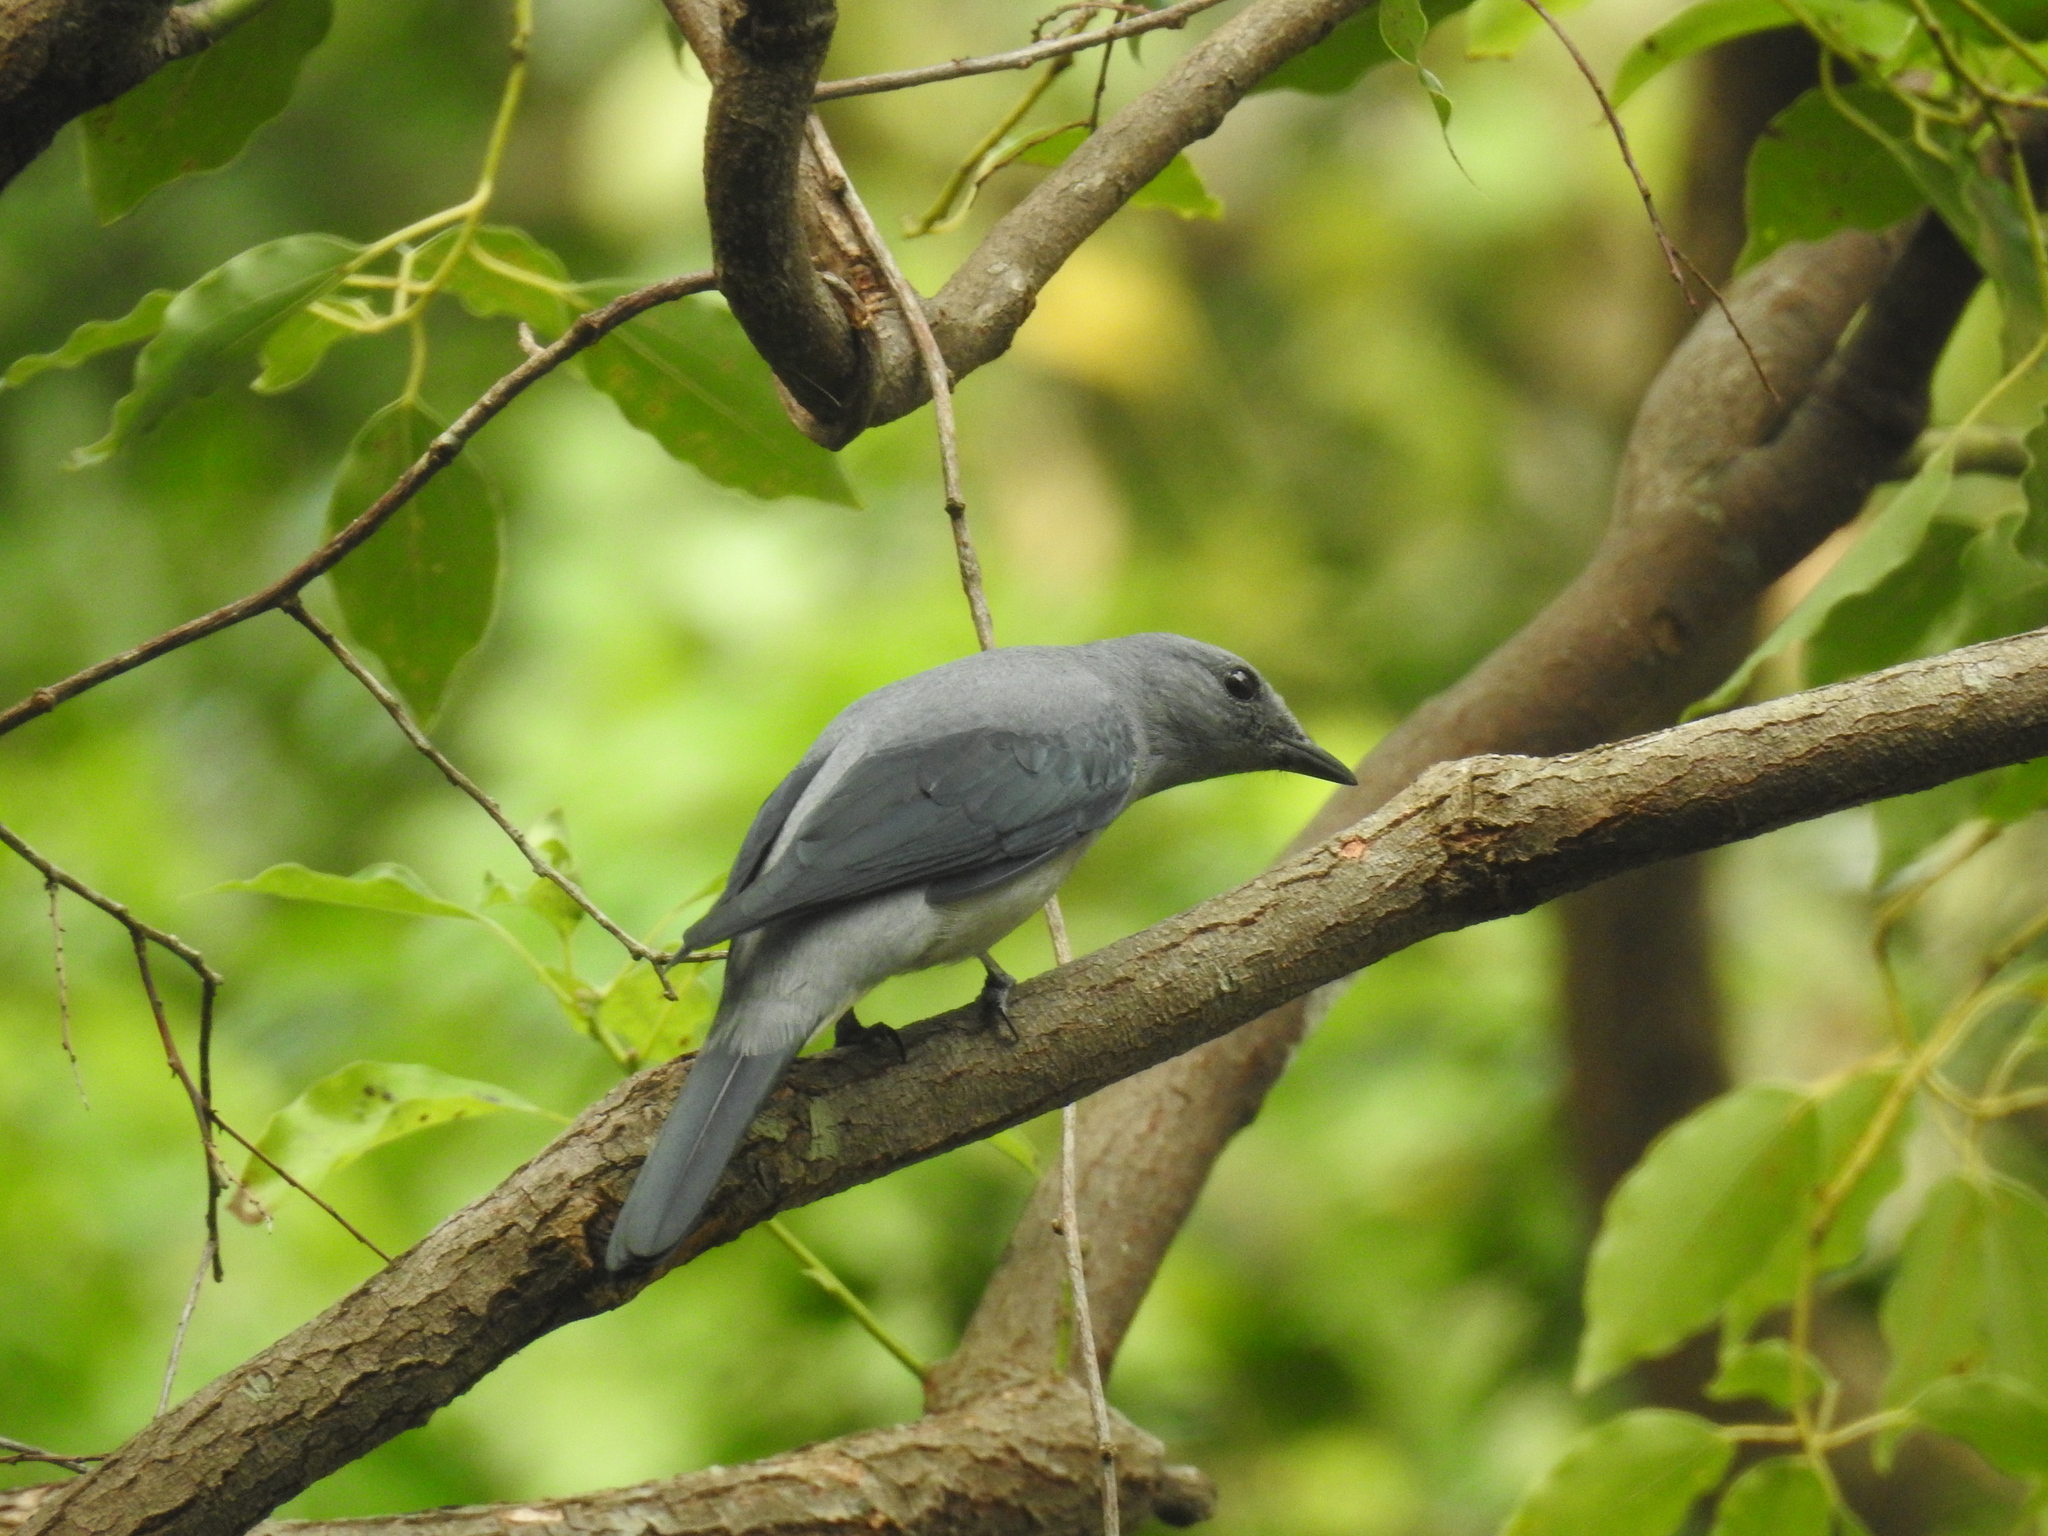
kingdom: Animalia
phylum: Chordata
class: Aves
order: Passeriformes
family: Campephagidae
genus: Coracina
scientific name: Coracina melaschistos
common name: Black-winged cuckooshrike
